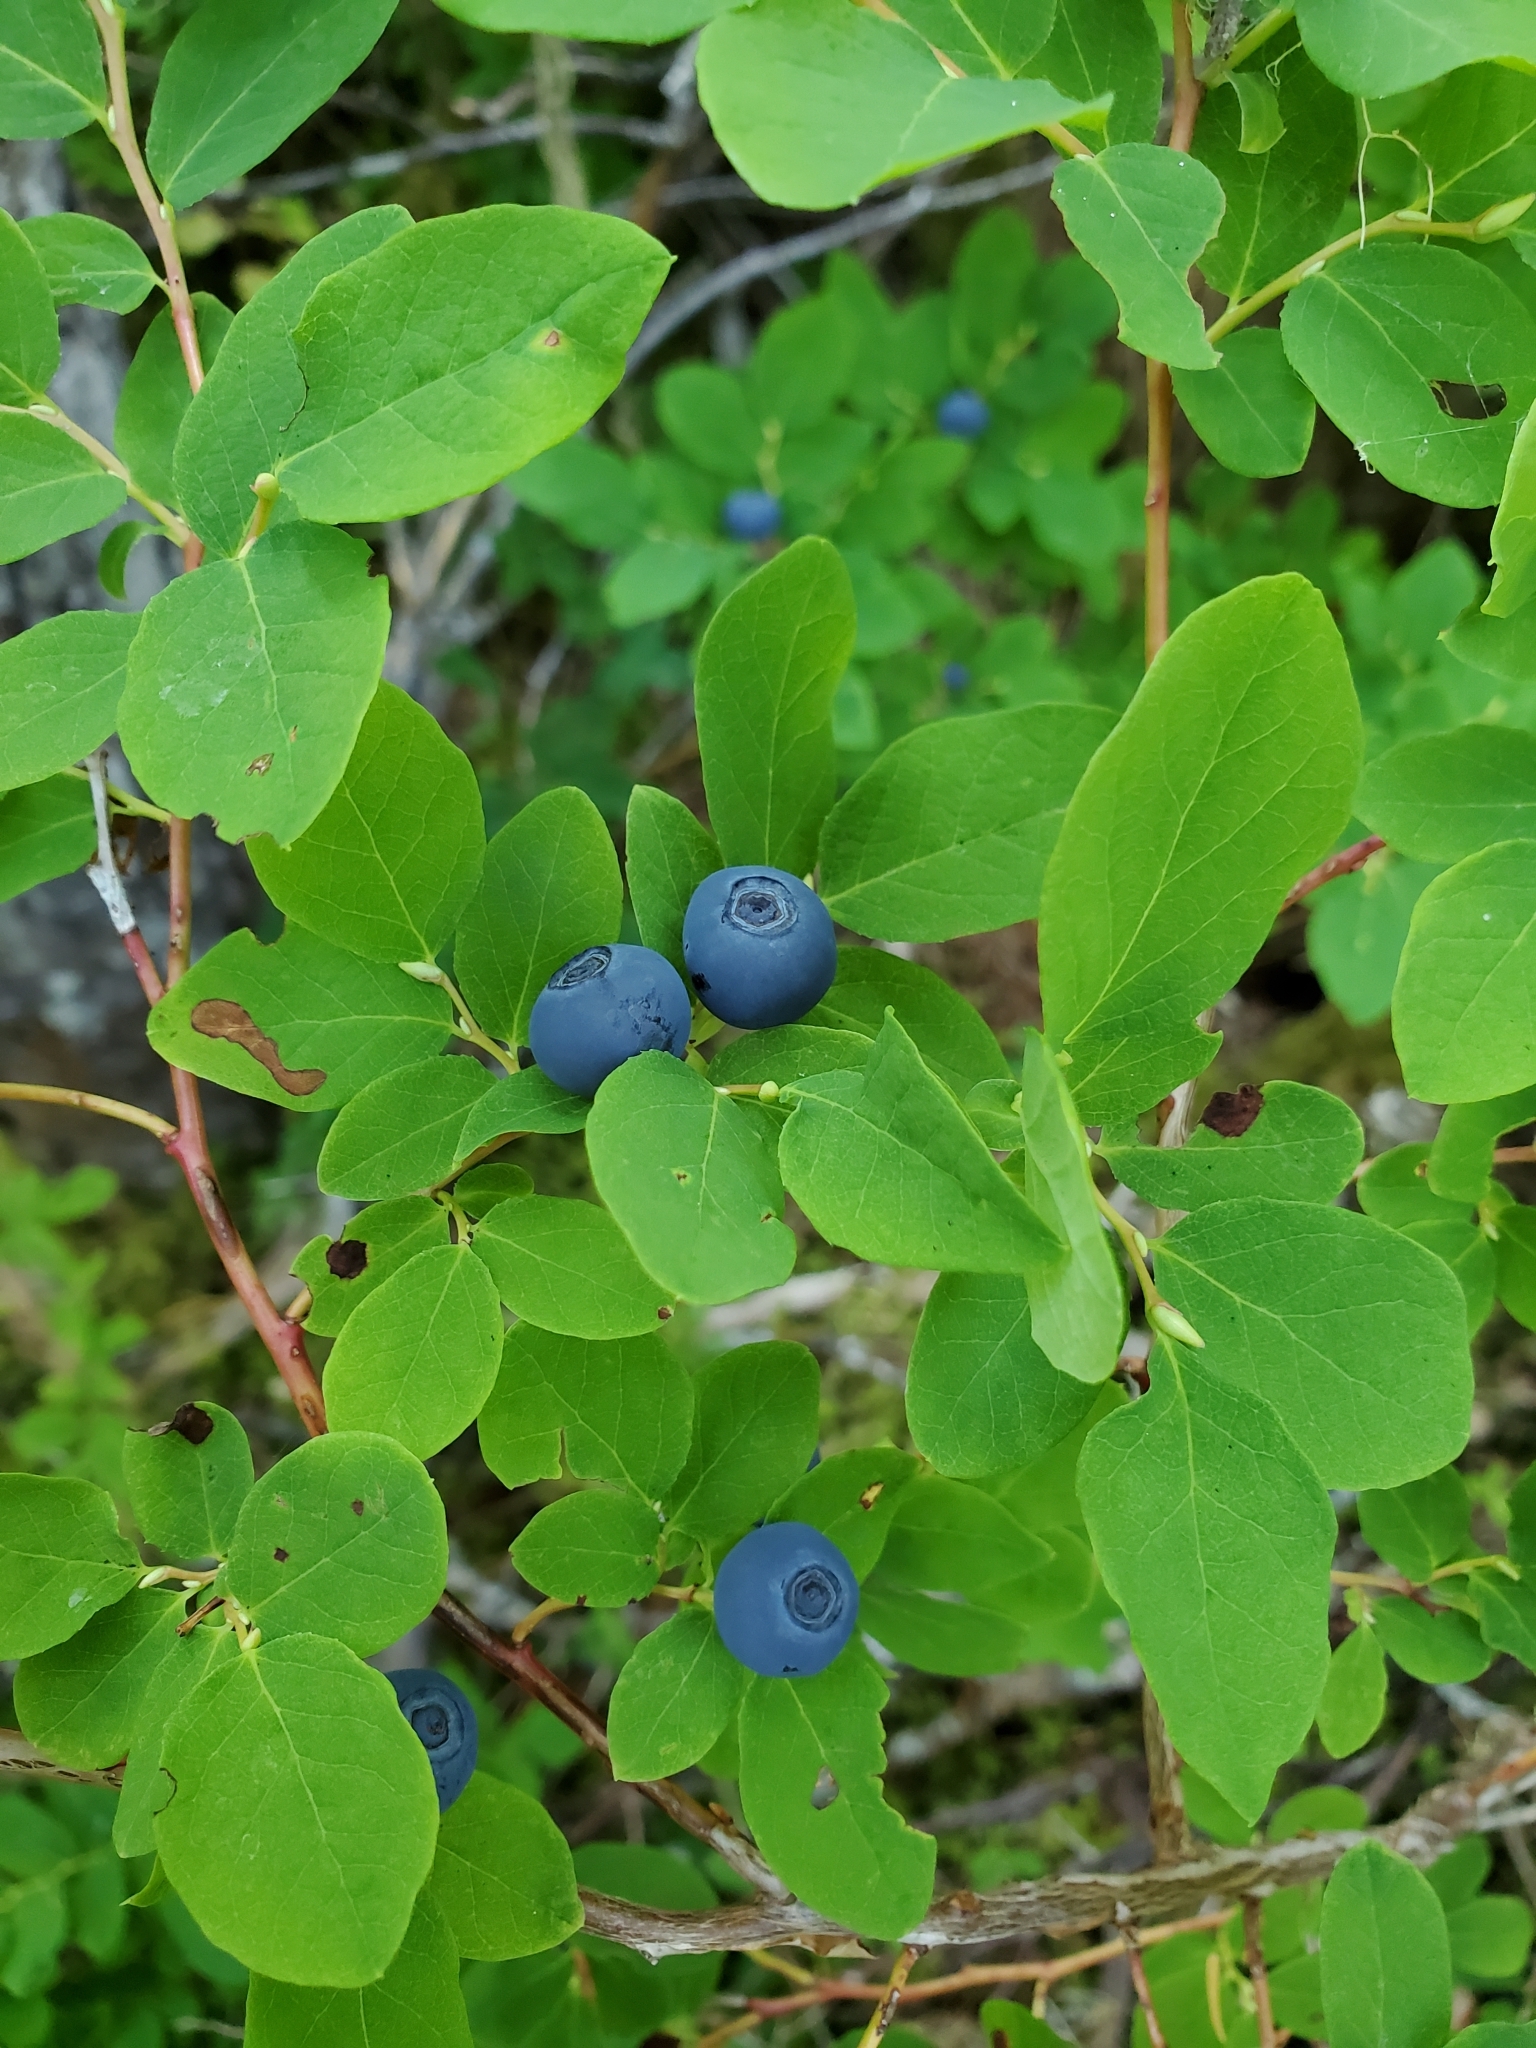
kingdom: Plantae
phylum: Tracheophyta
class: Magnoliopsida
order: Ericales
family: Ericaceae
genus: Vaccinium
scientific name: Vaccinium ovalifolium
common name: Early blueberry
